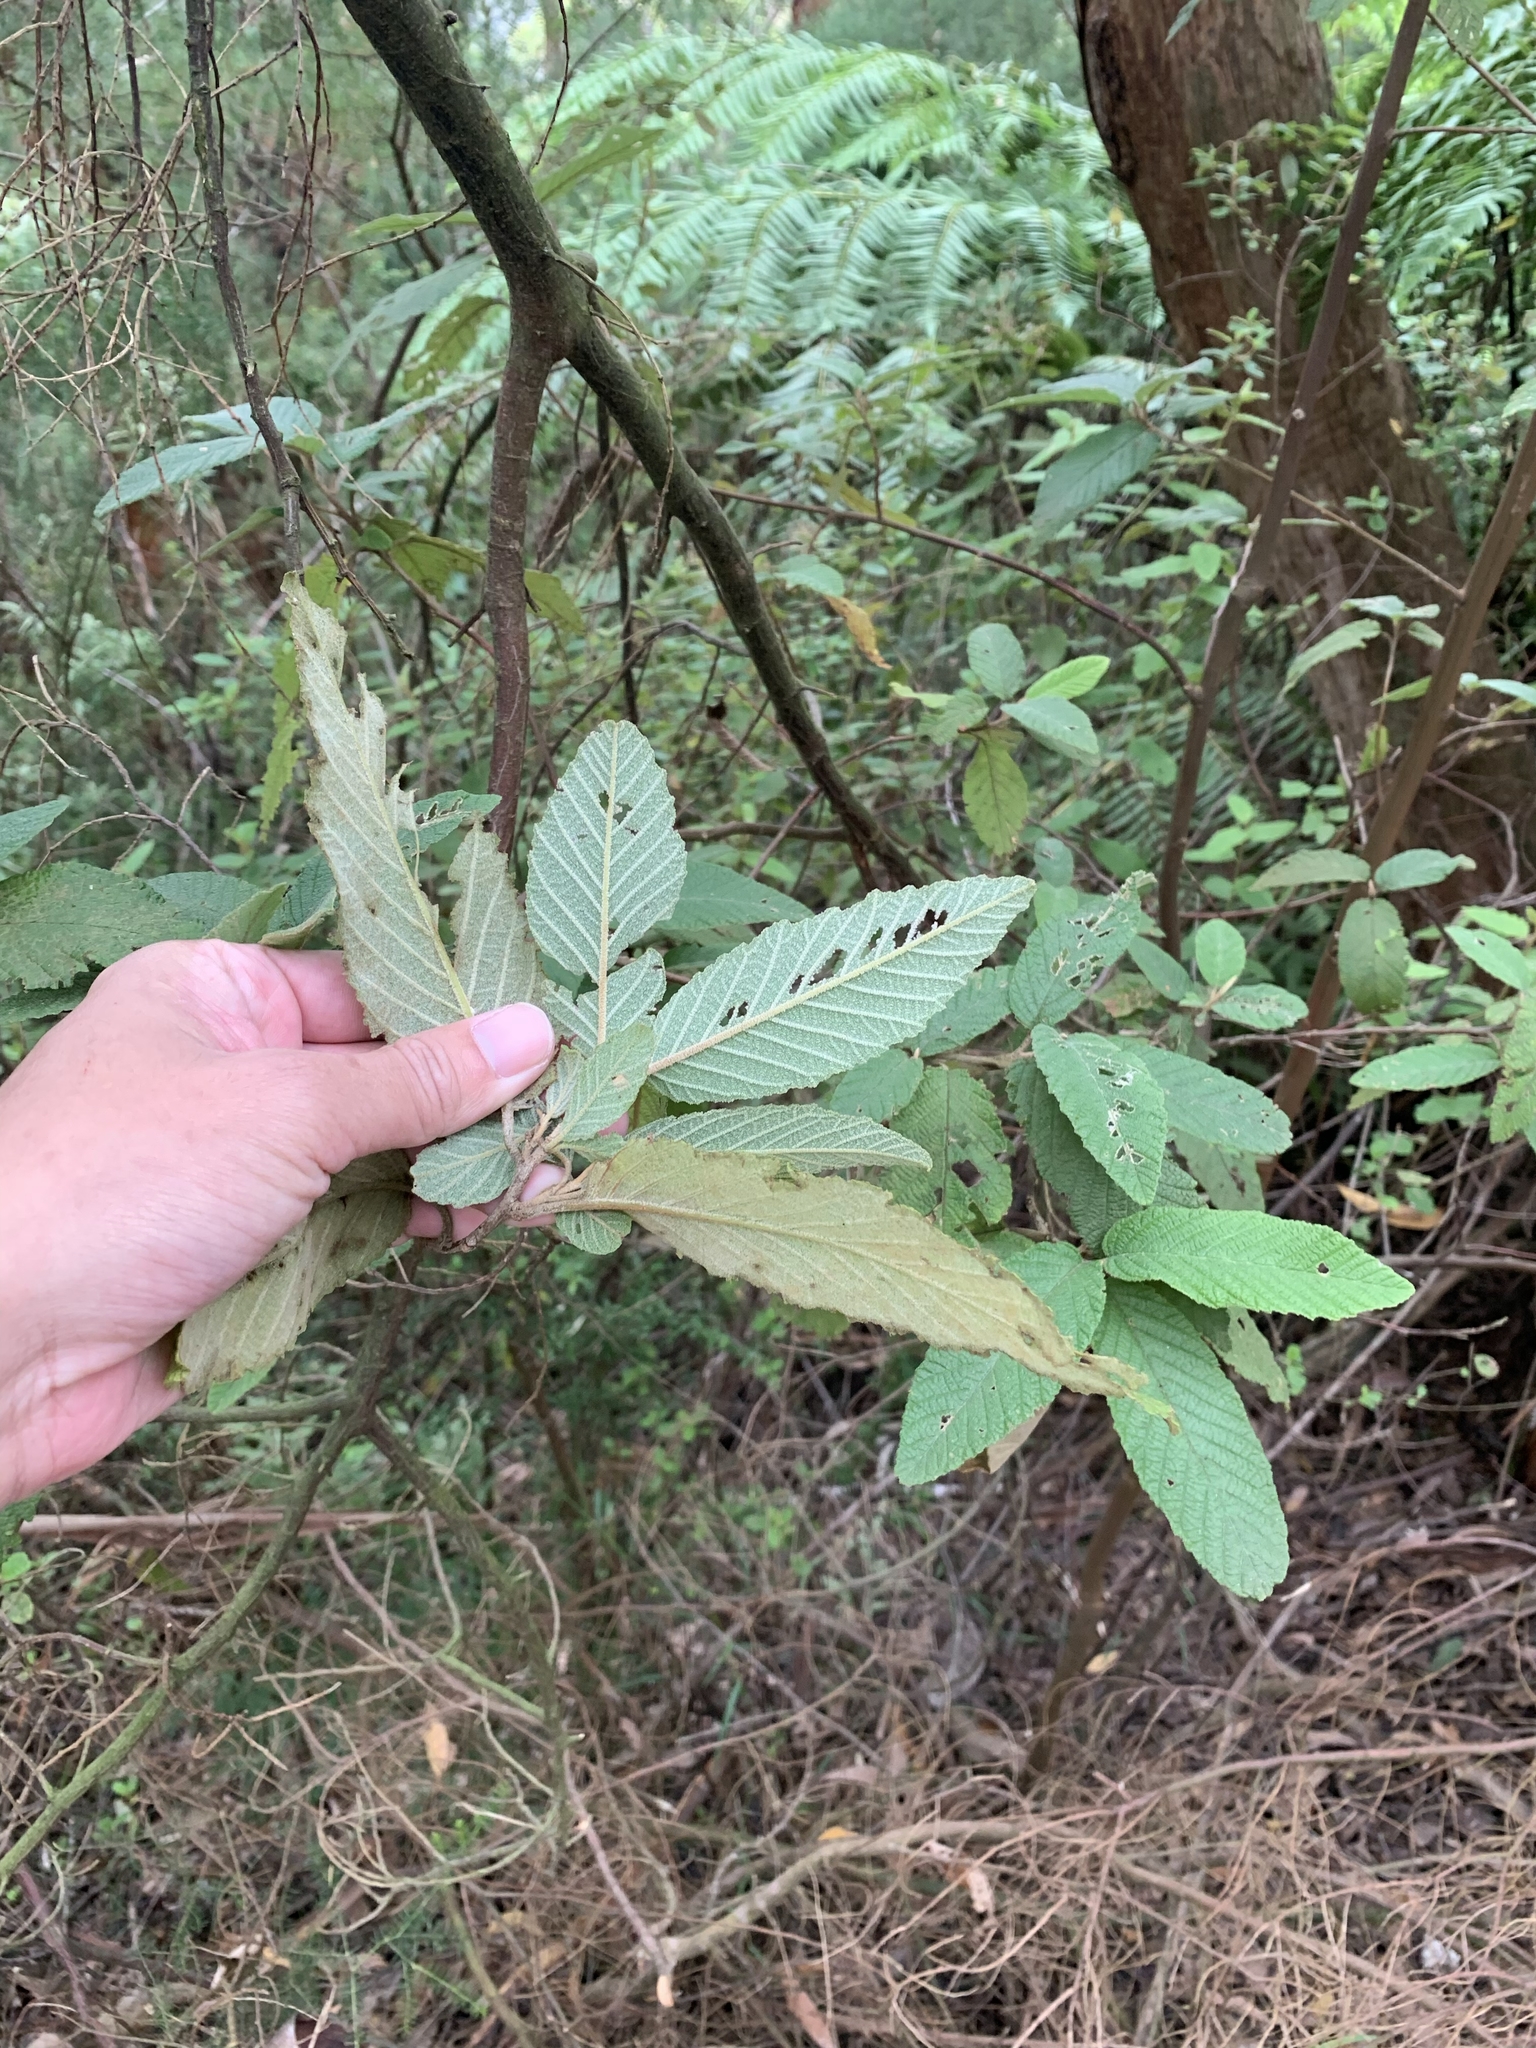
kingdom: Plantae
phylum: Tracheophyta
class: Magnoliopsida
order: Rosales
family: Rhamnaceae
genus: Pomaderris
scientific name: Pomaderris aspera
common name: Hazel pomaderris
